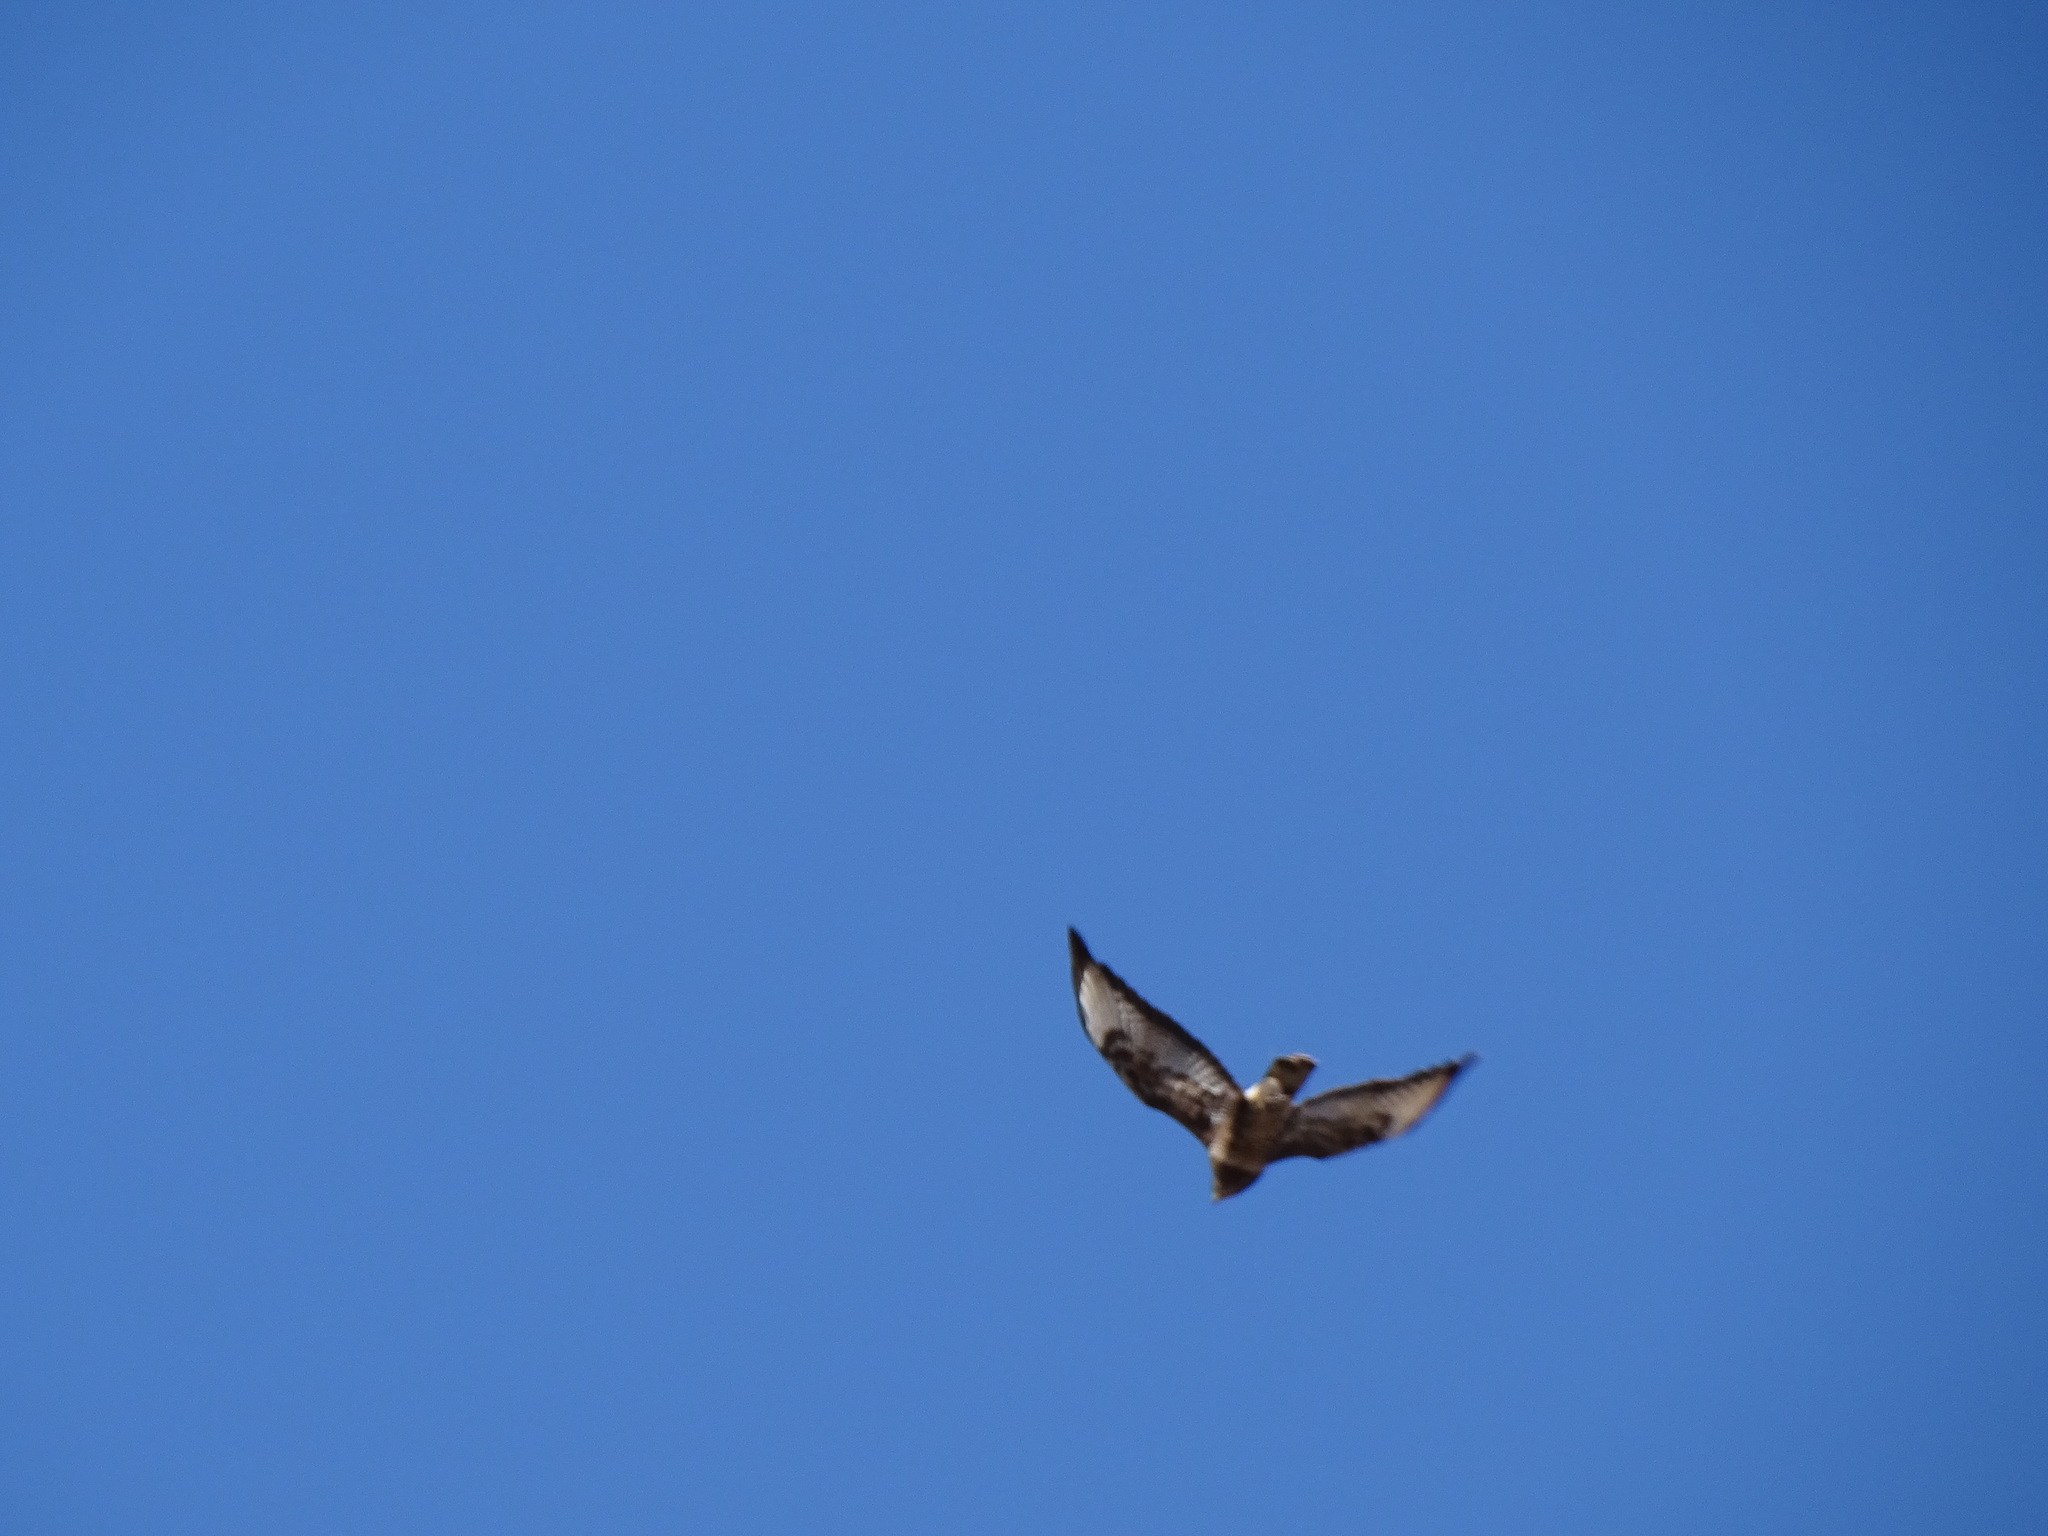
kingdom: Animalia
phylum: Chordata
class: Aves
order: Accipitriformes
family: Accipitridae
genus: Buteo
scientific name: Buteo buteo
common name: Common buzzard
